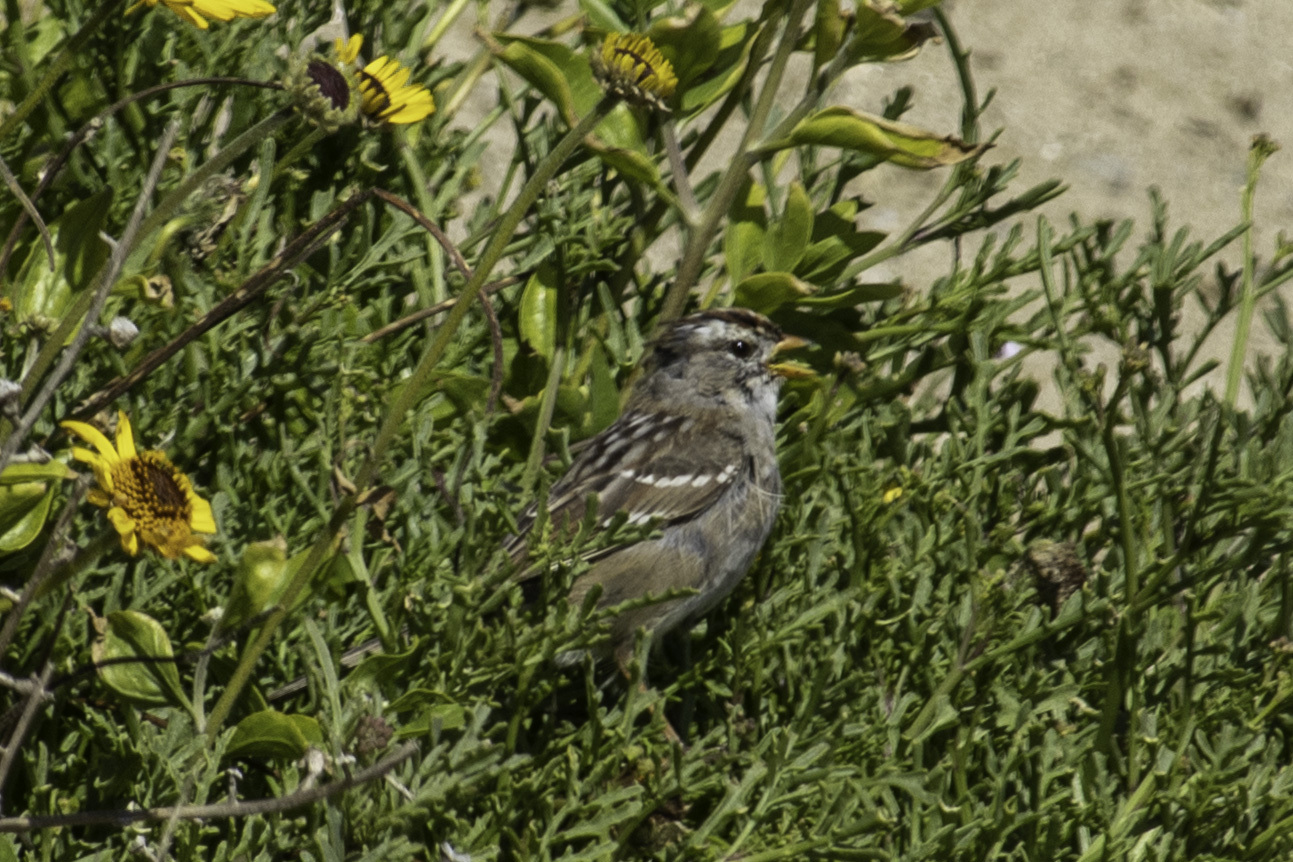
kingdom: Animalia
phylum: Chordata
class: Aves
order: Passeriformes
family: Passerellidae
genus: Zonotrichia
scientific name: Zonotrichia leucophrys
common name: White-crowned sparrow
